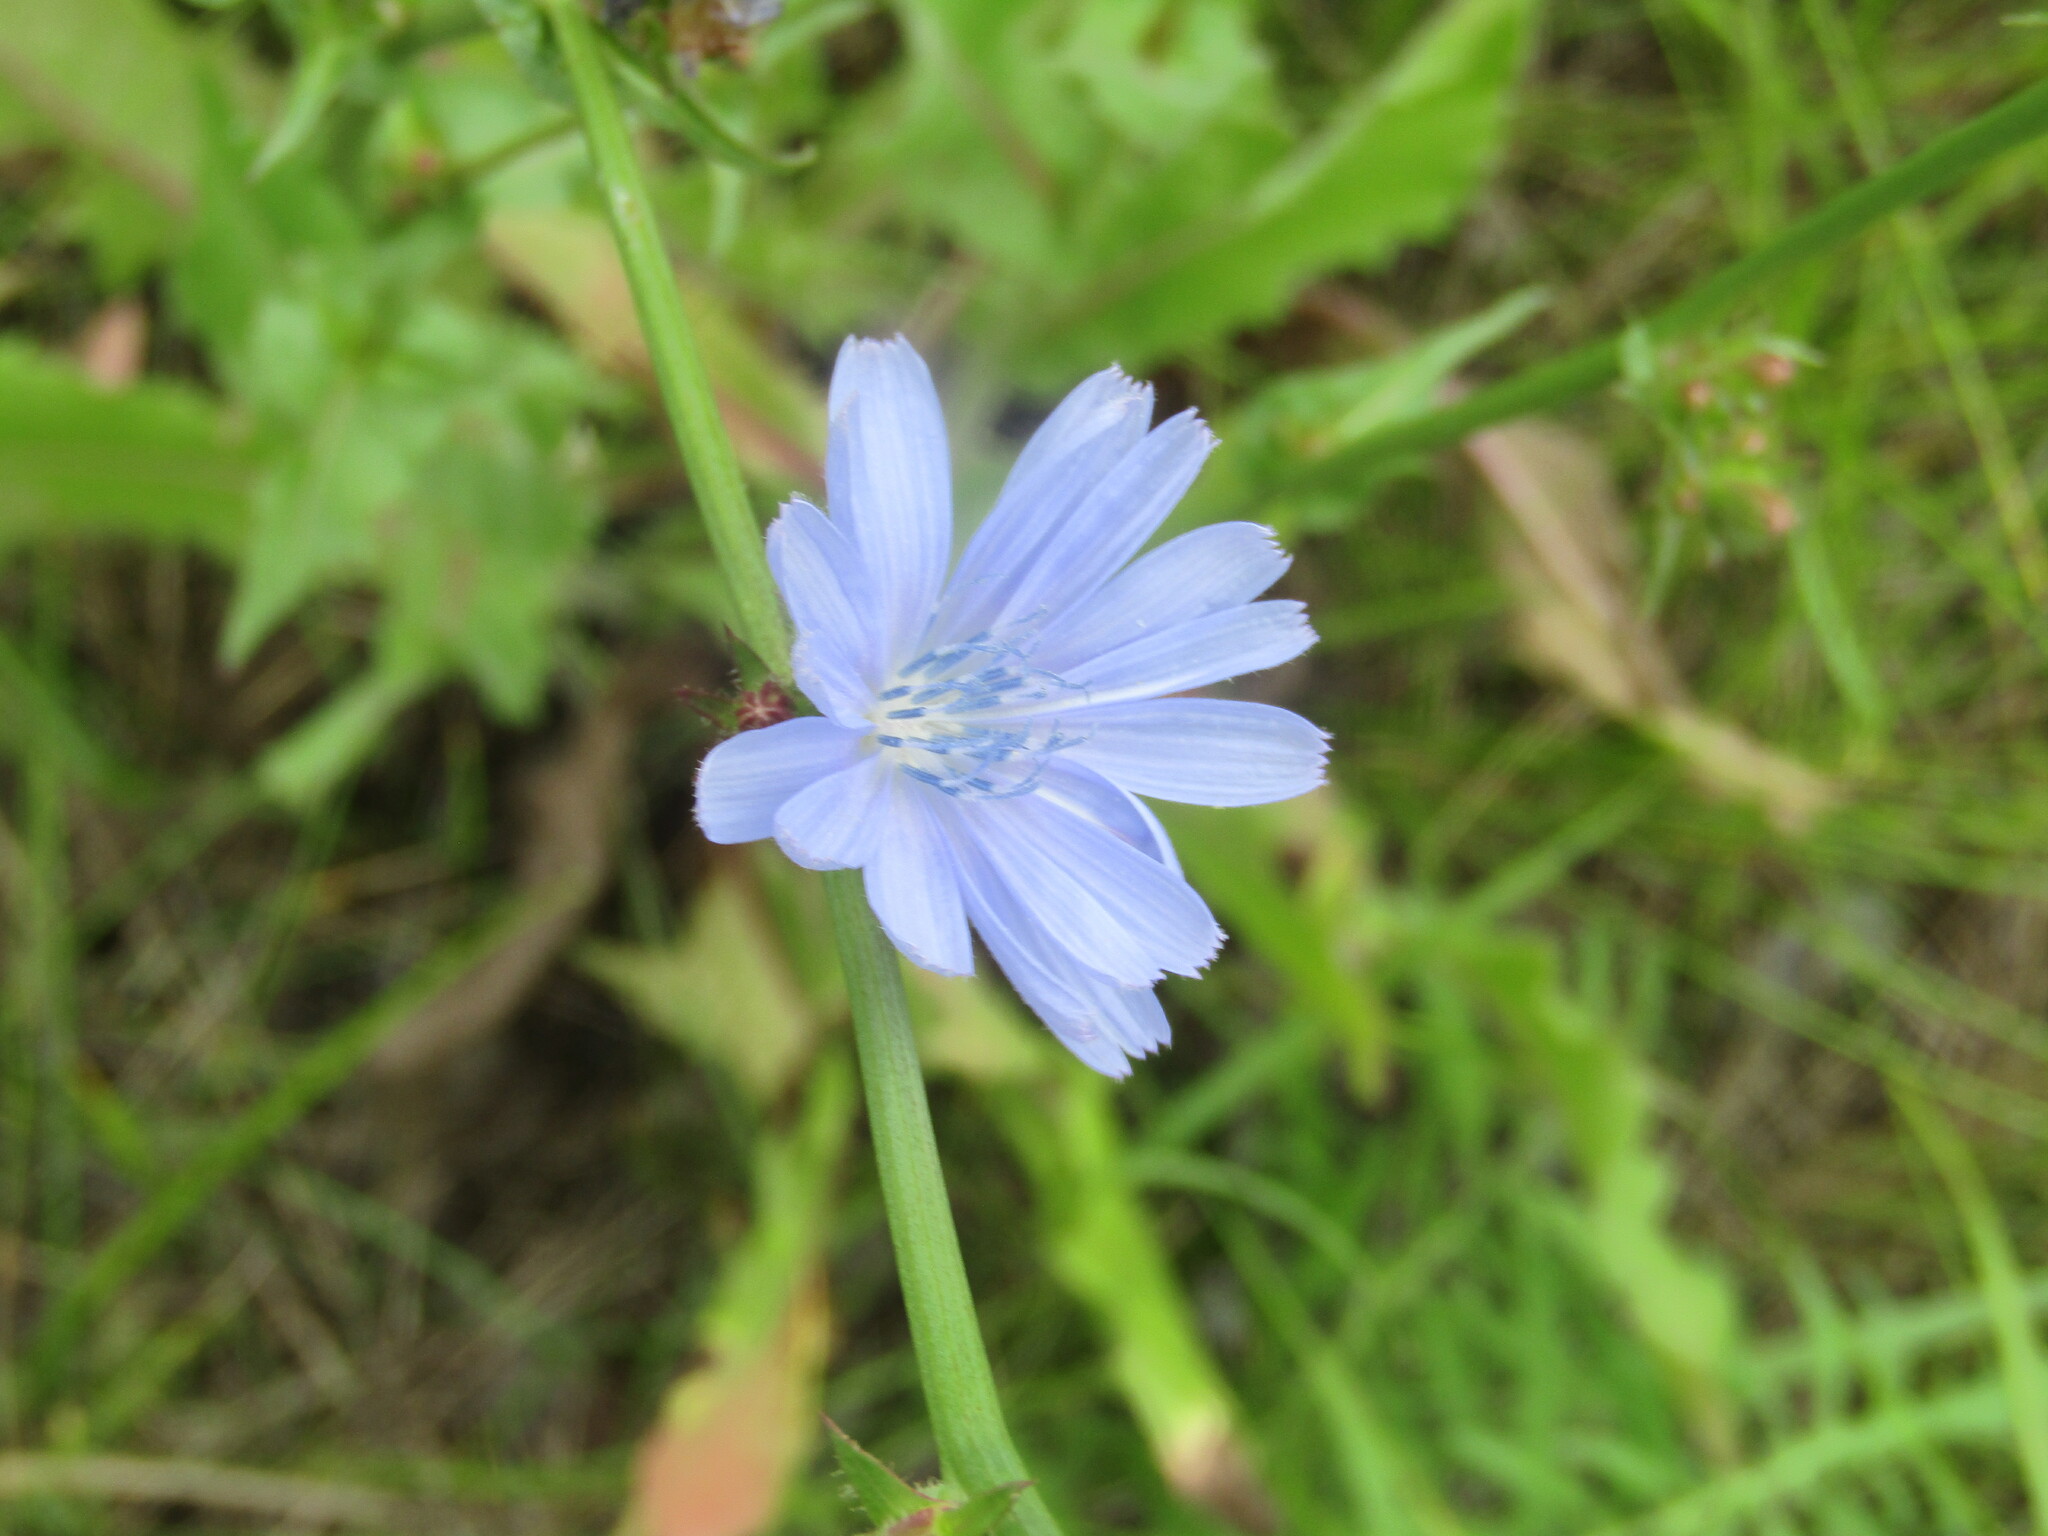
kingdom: Plantae
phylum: Tracheophyta
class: Magnoliopsida
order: Asterales
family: Asteraceae
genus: Cichorium
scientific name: Cichorium intybus
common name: Chicory
